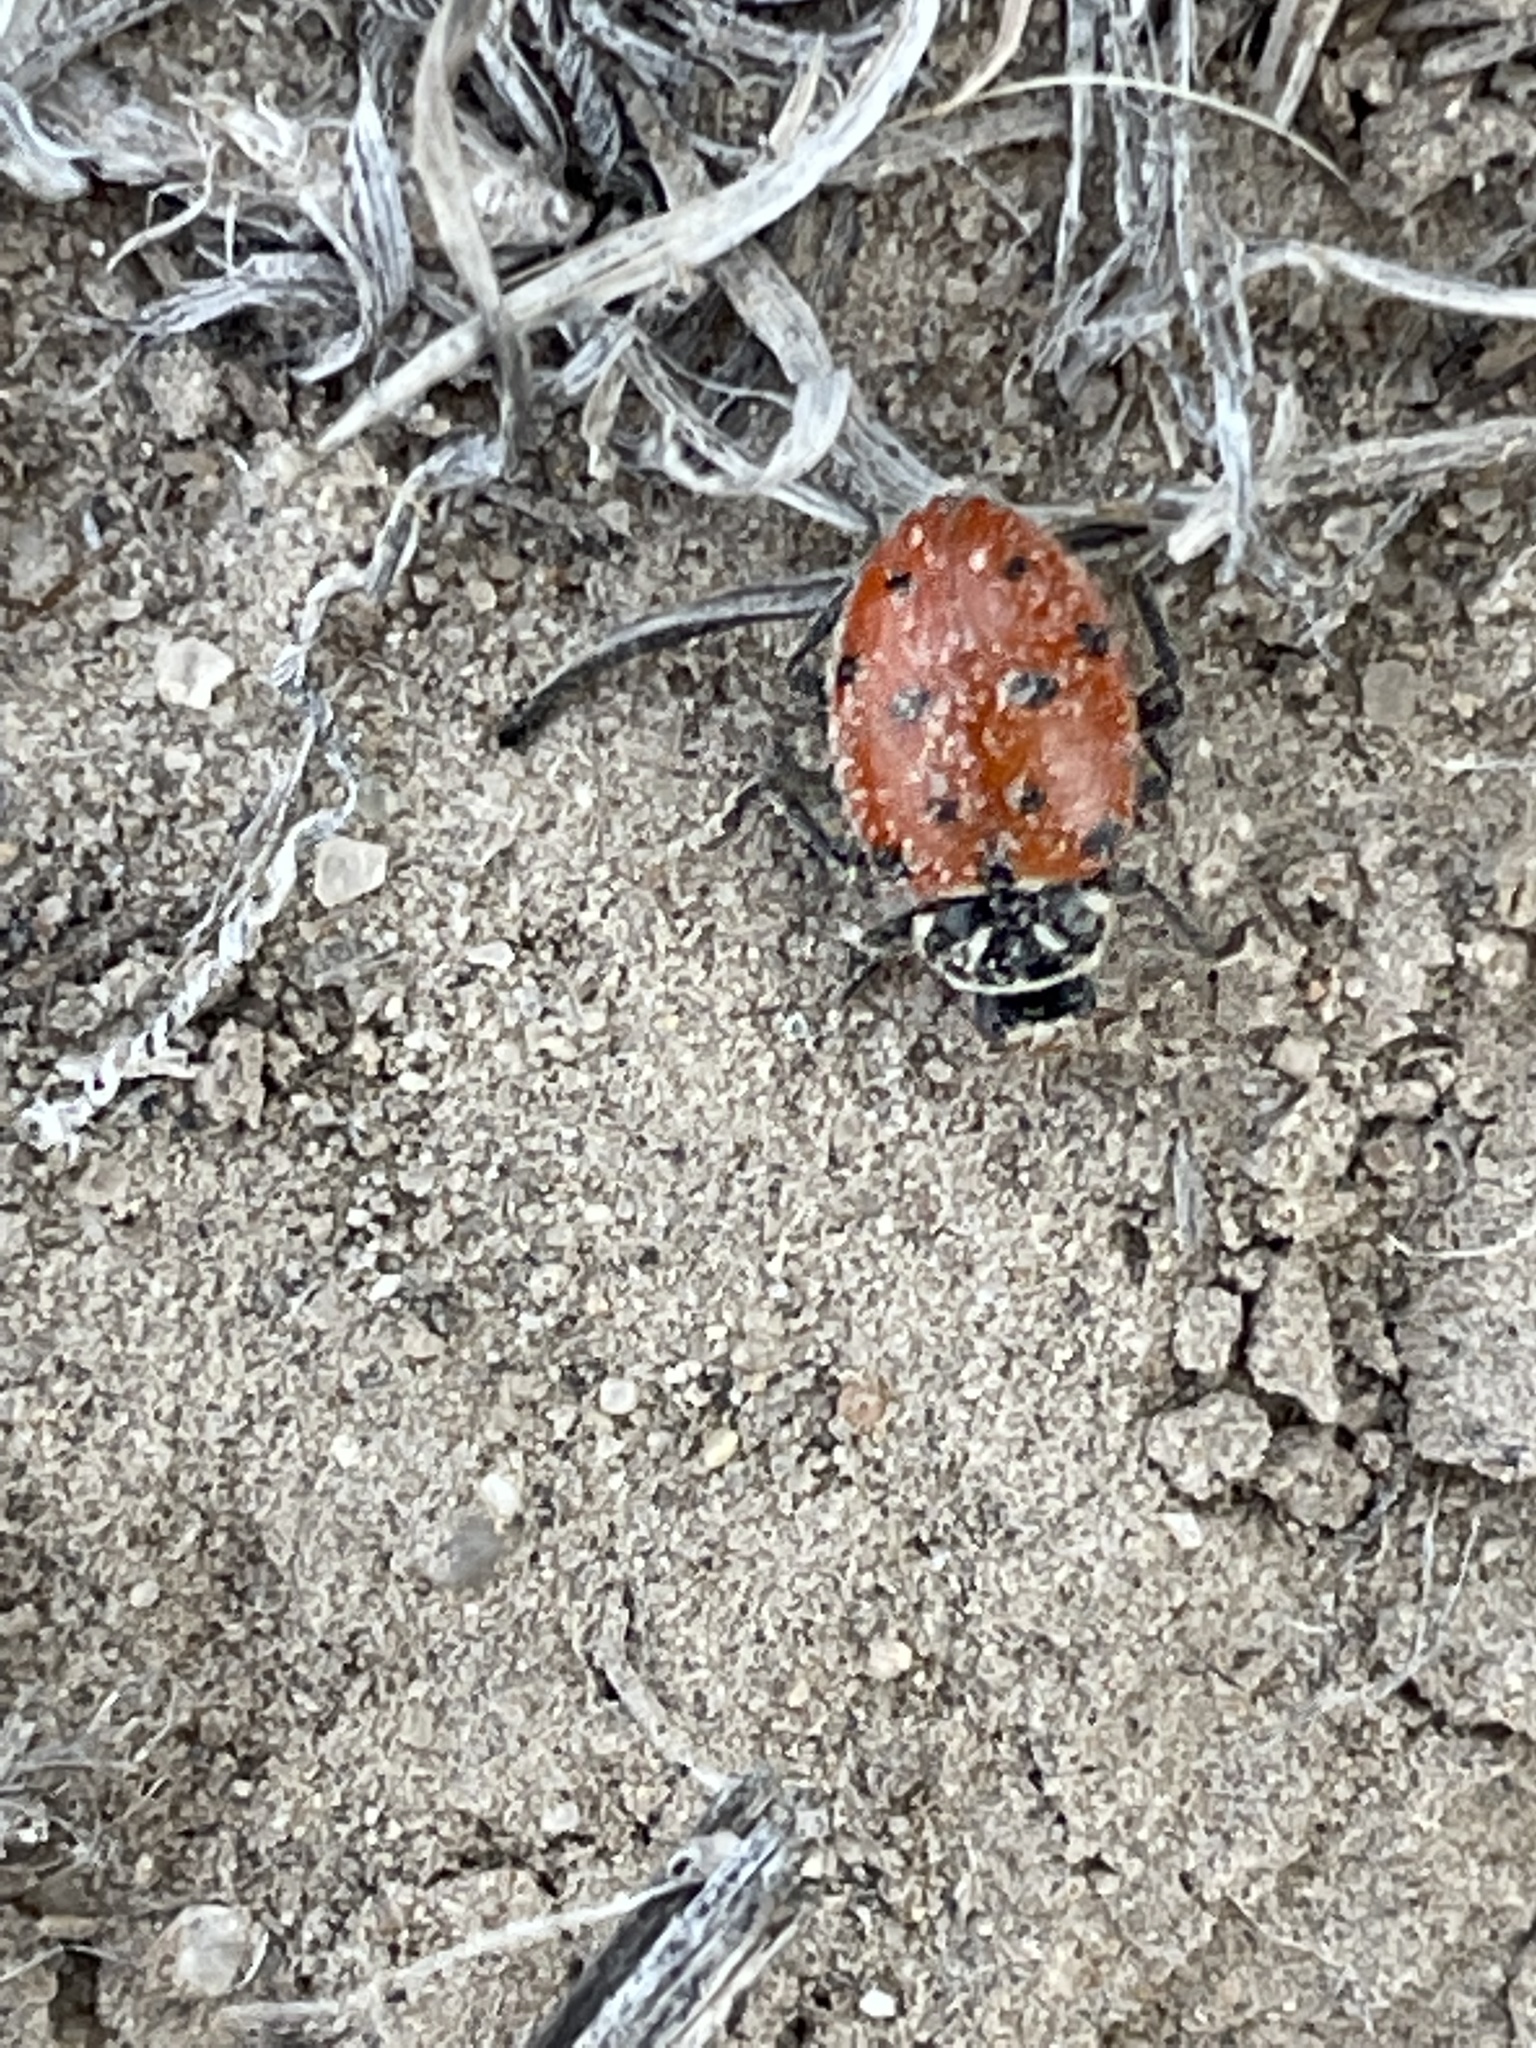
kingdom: Animalia
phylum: Arthropoda
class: Insecta
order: Coleoptera
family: Coccinellidae
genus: Hippodamia
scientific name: Hippodamia convergens
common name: Convergent lady beetle
